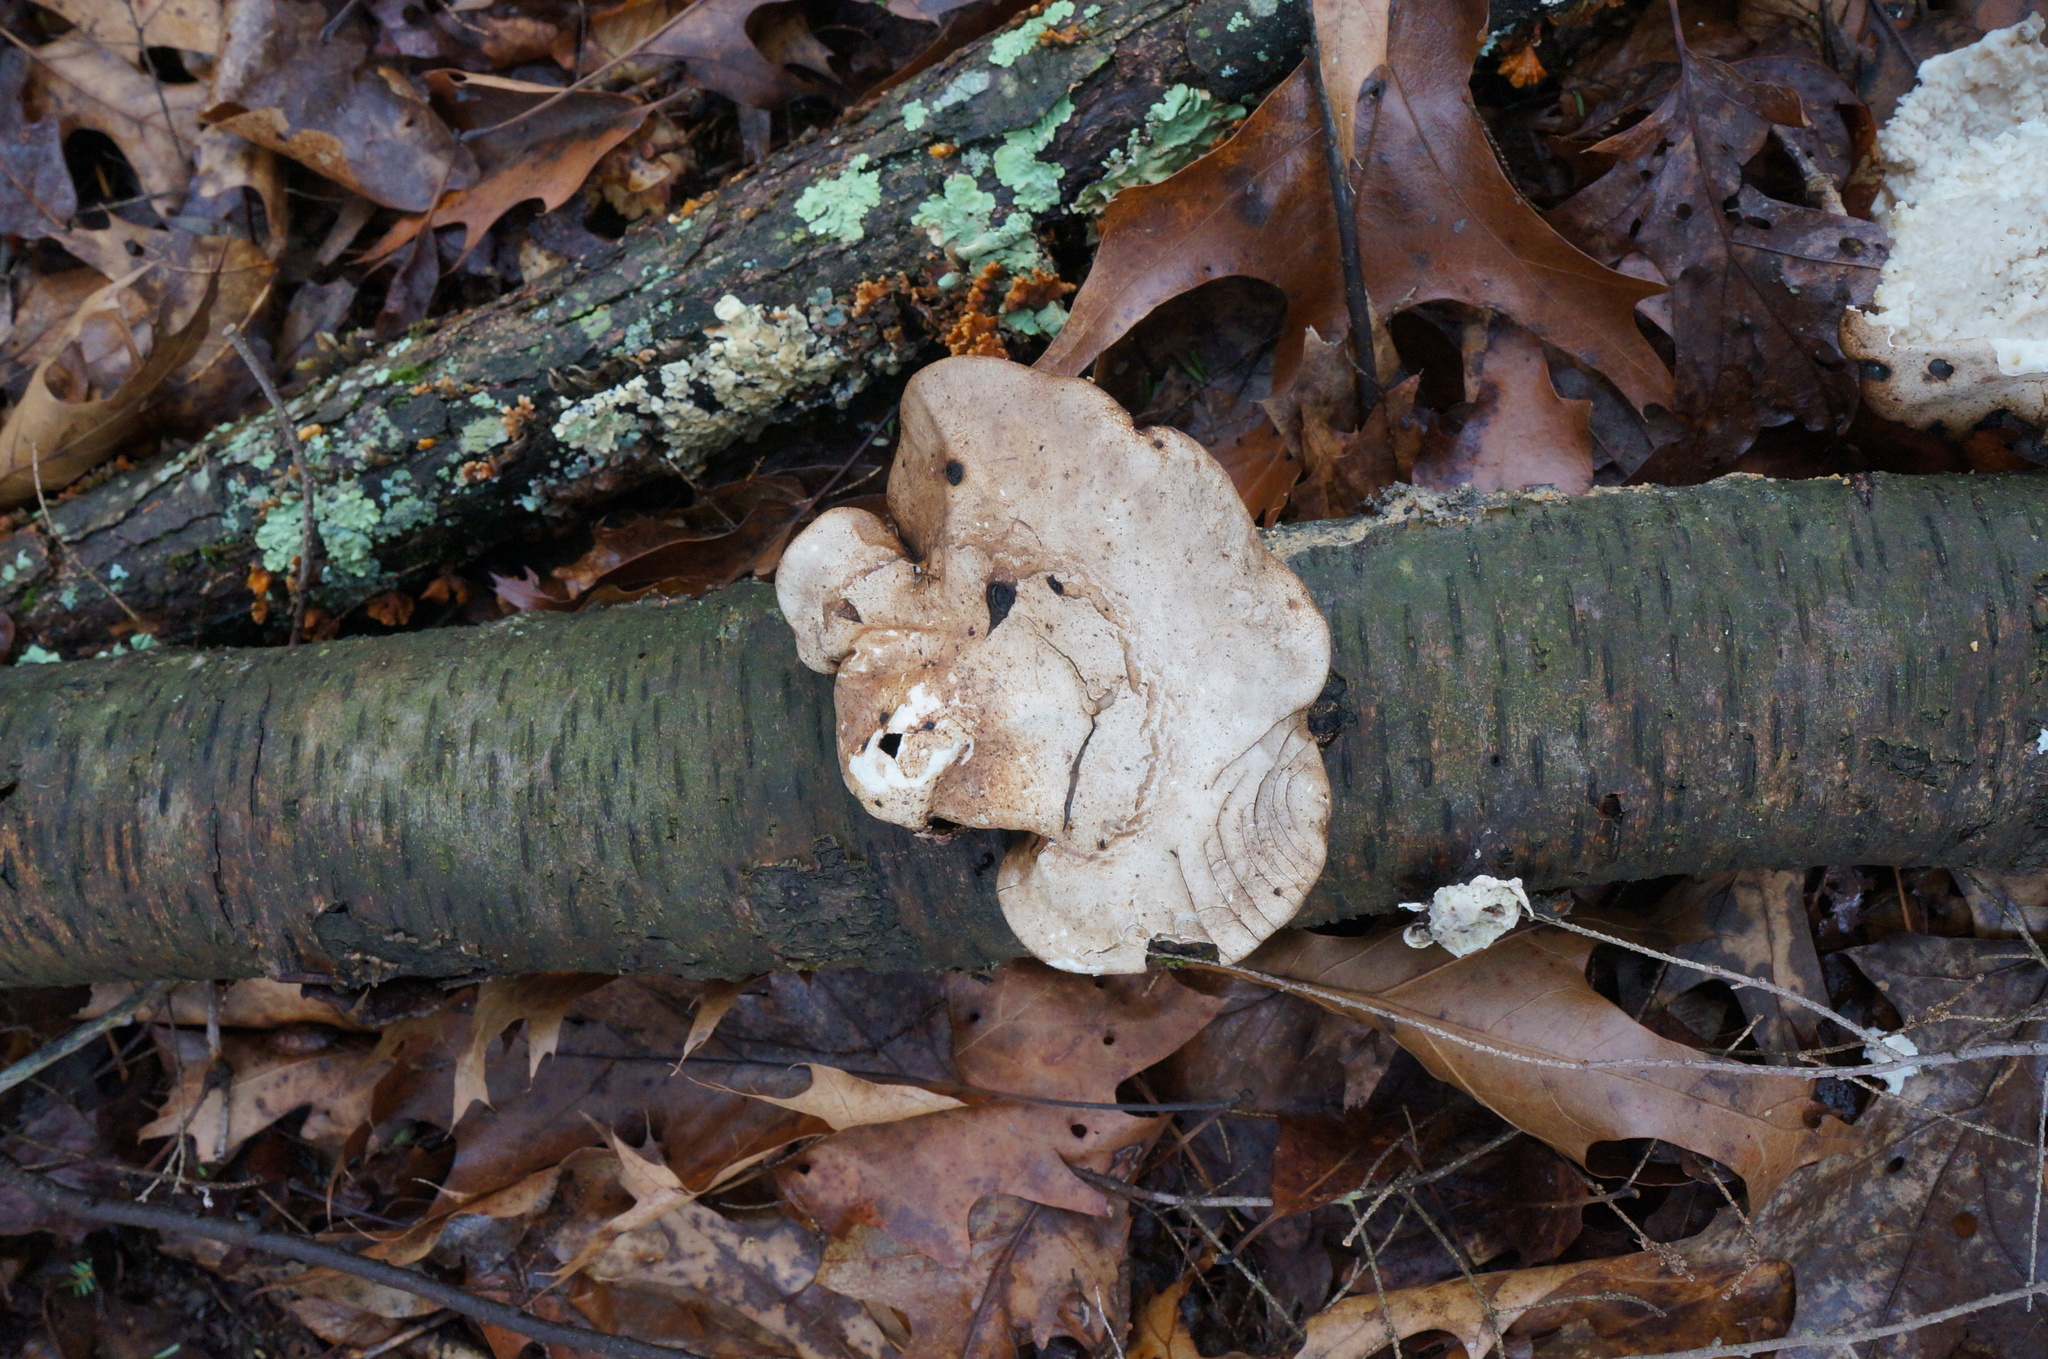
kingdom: Fungi
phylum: Basidiomycota
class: Agaricomycetes
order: Polyporales
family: Fomitopsidaceae
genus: Fomitopsis
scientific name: Fomitopsis betulina
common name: Birch polypore
